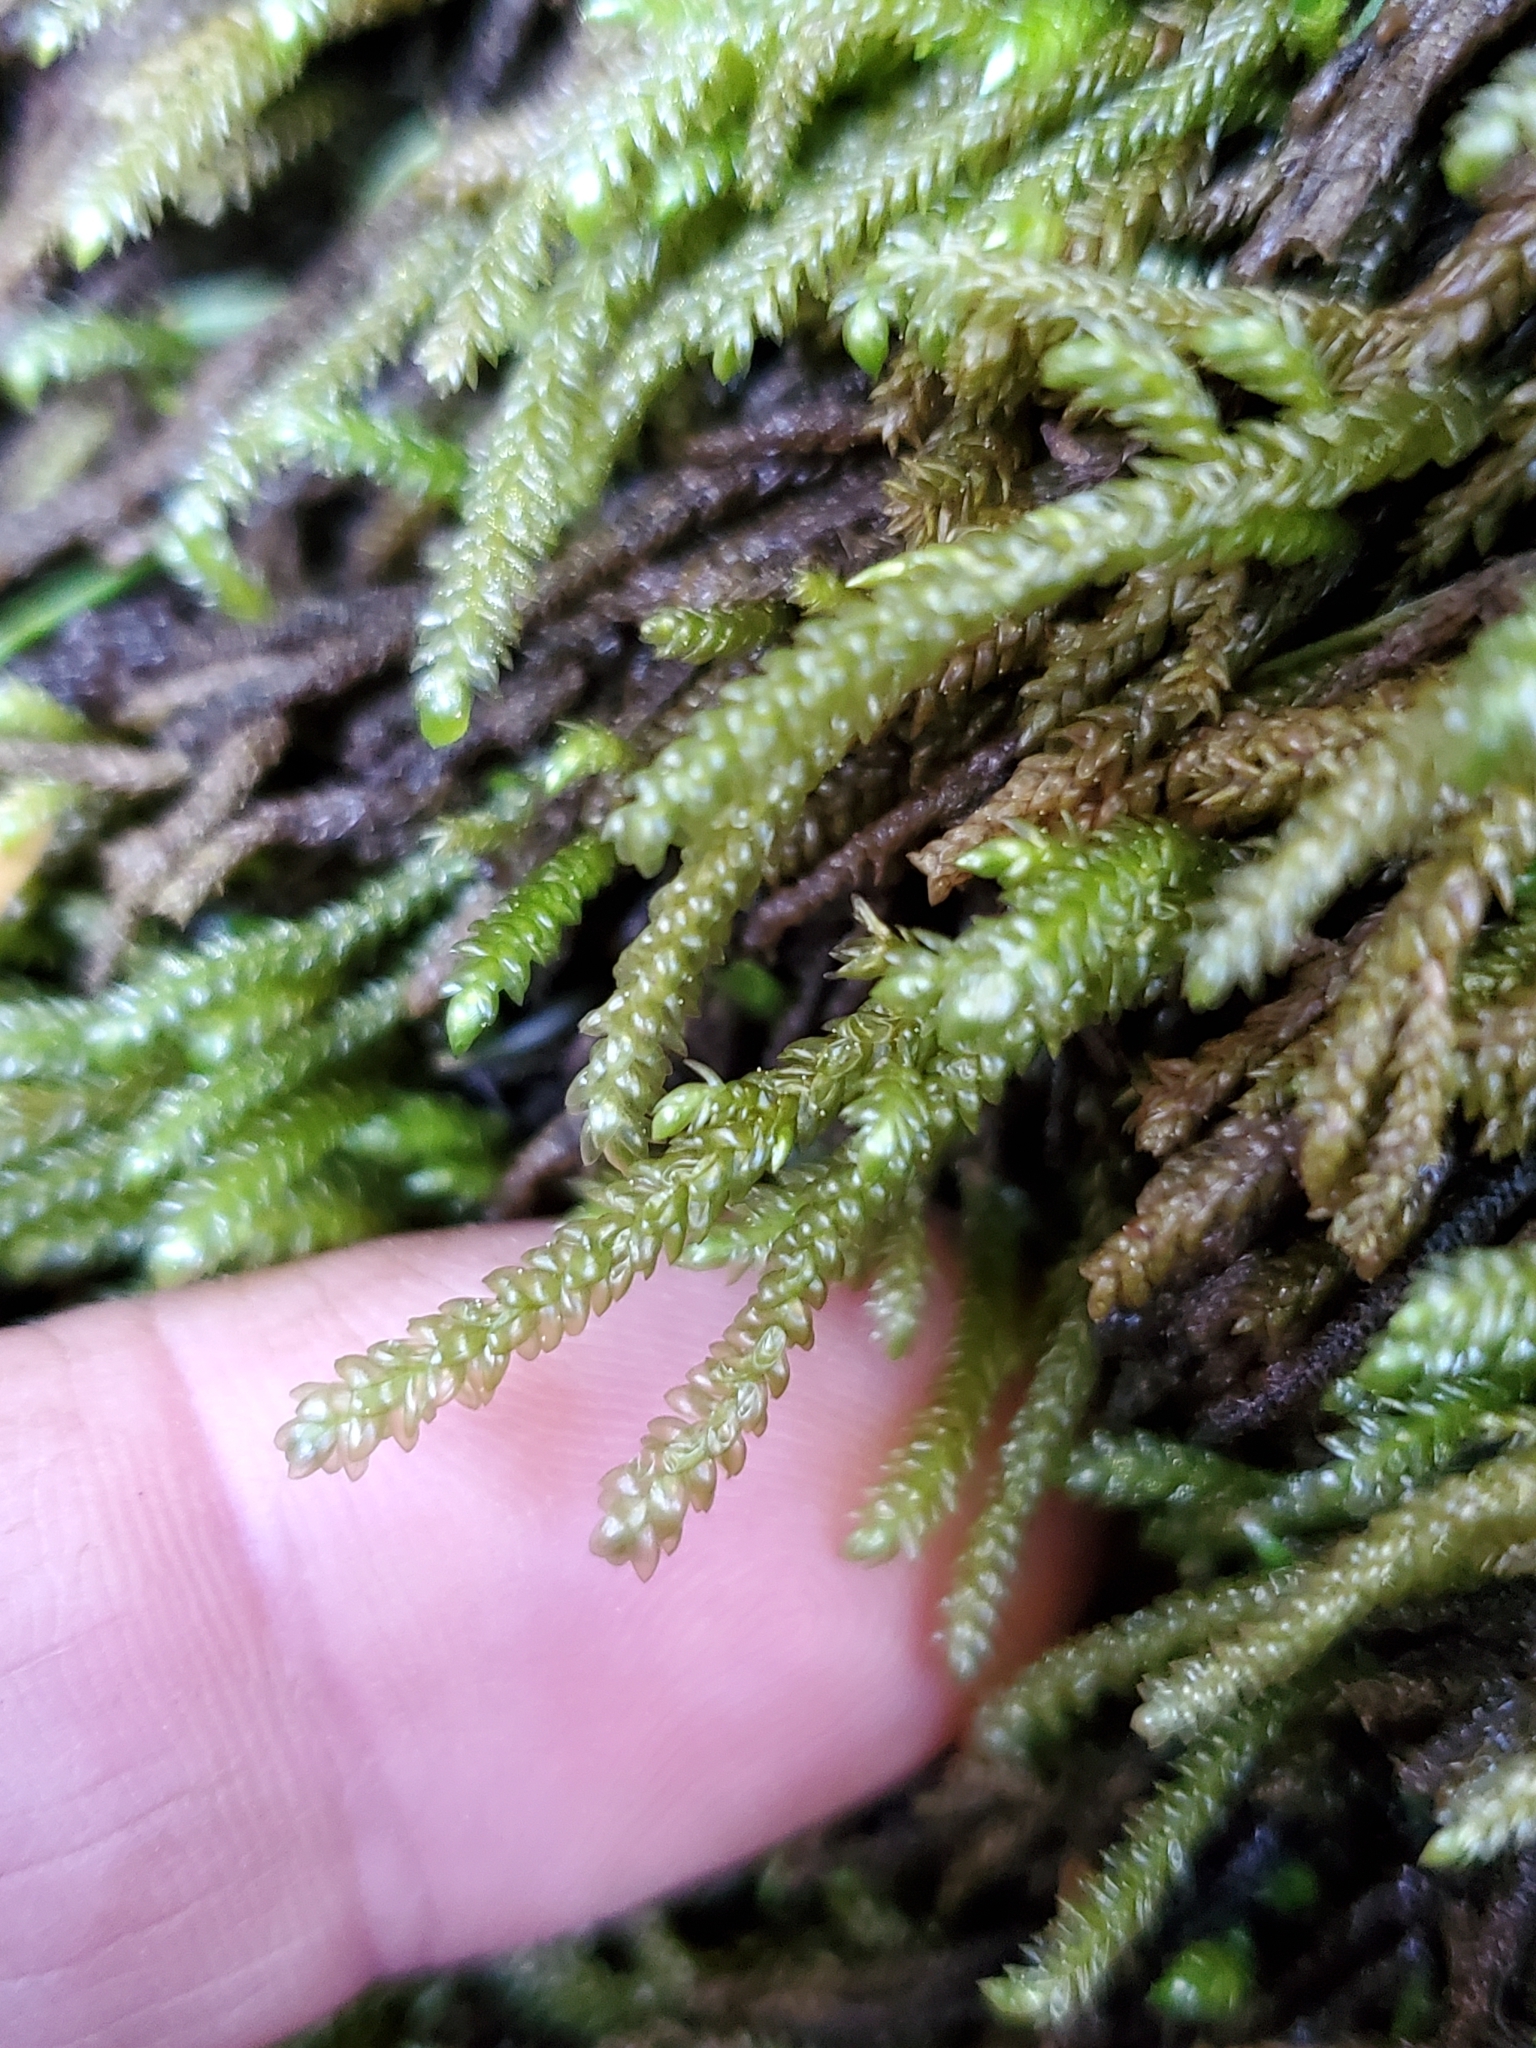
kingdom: Plantae
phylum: Bryophyta
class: Bryopsida
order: Hypnales
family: Brachytheciaceae
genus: Scleropodium
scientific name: Scleropodium obtusifolium
